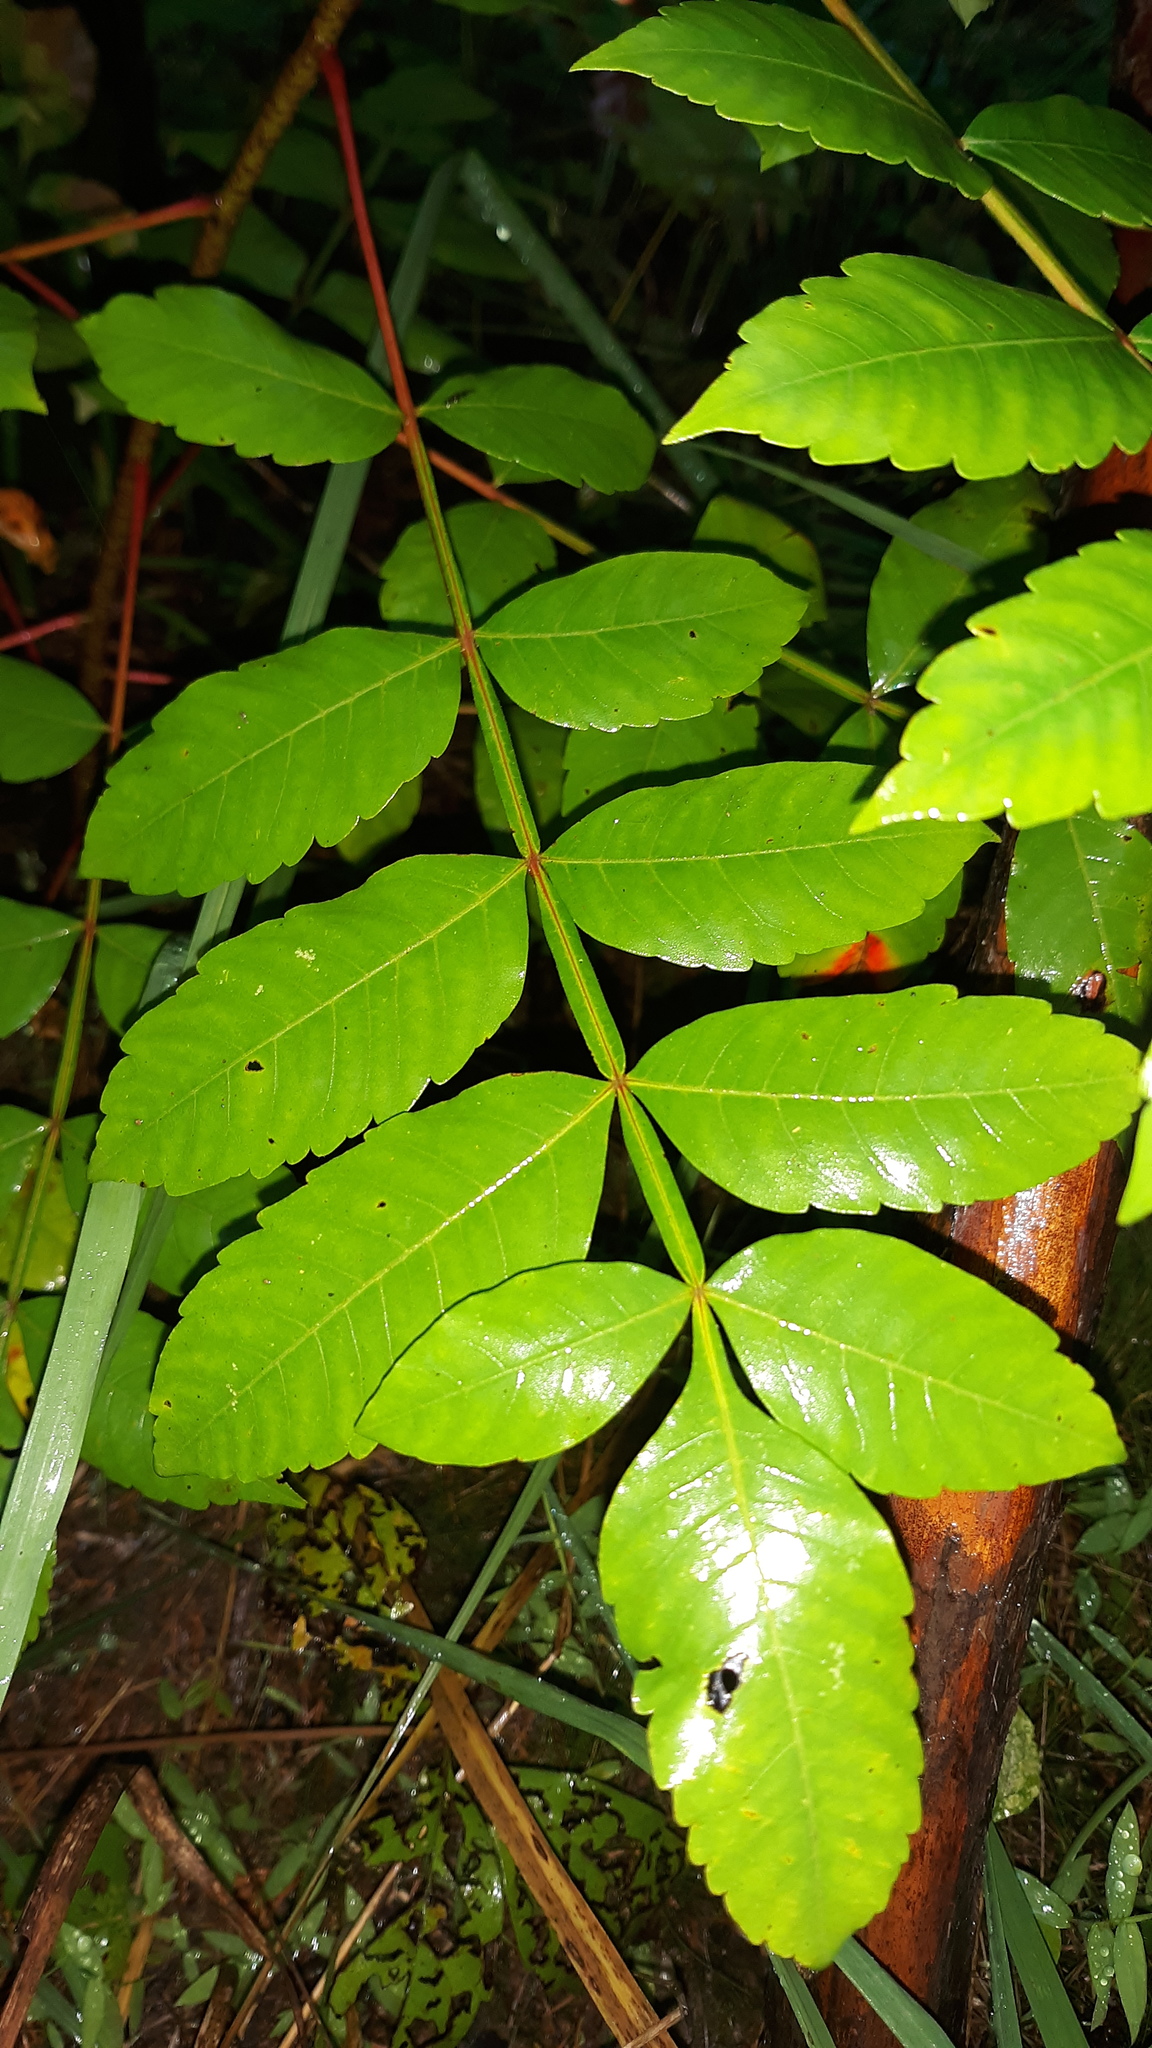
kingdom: Plantae
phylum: Tracheophyta
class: Magnoliopsida
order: Sapindales
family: Anacardiaceae
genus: Rhus
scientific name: Rhus copallina
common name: Shining sumac
